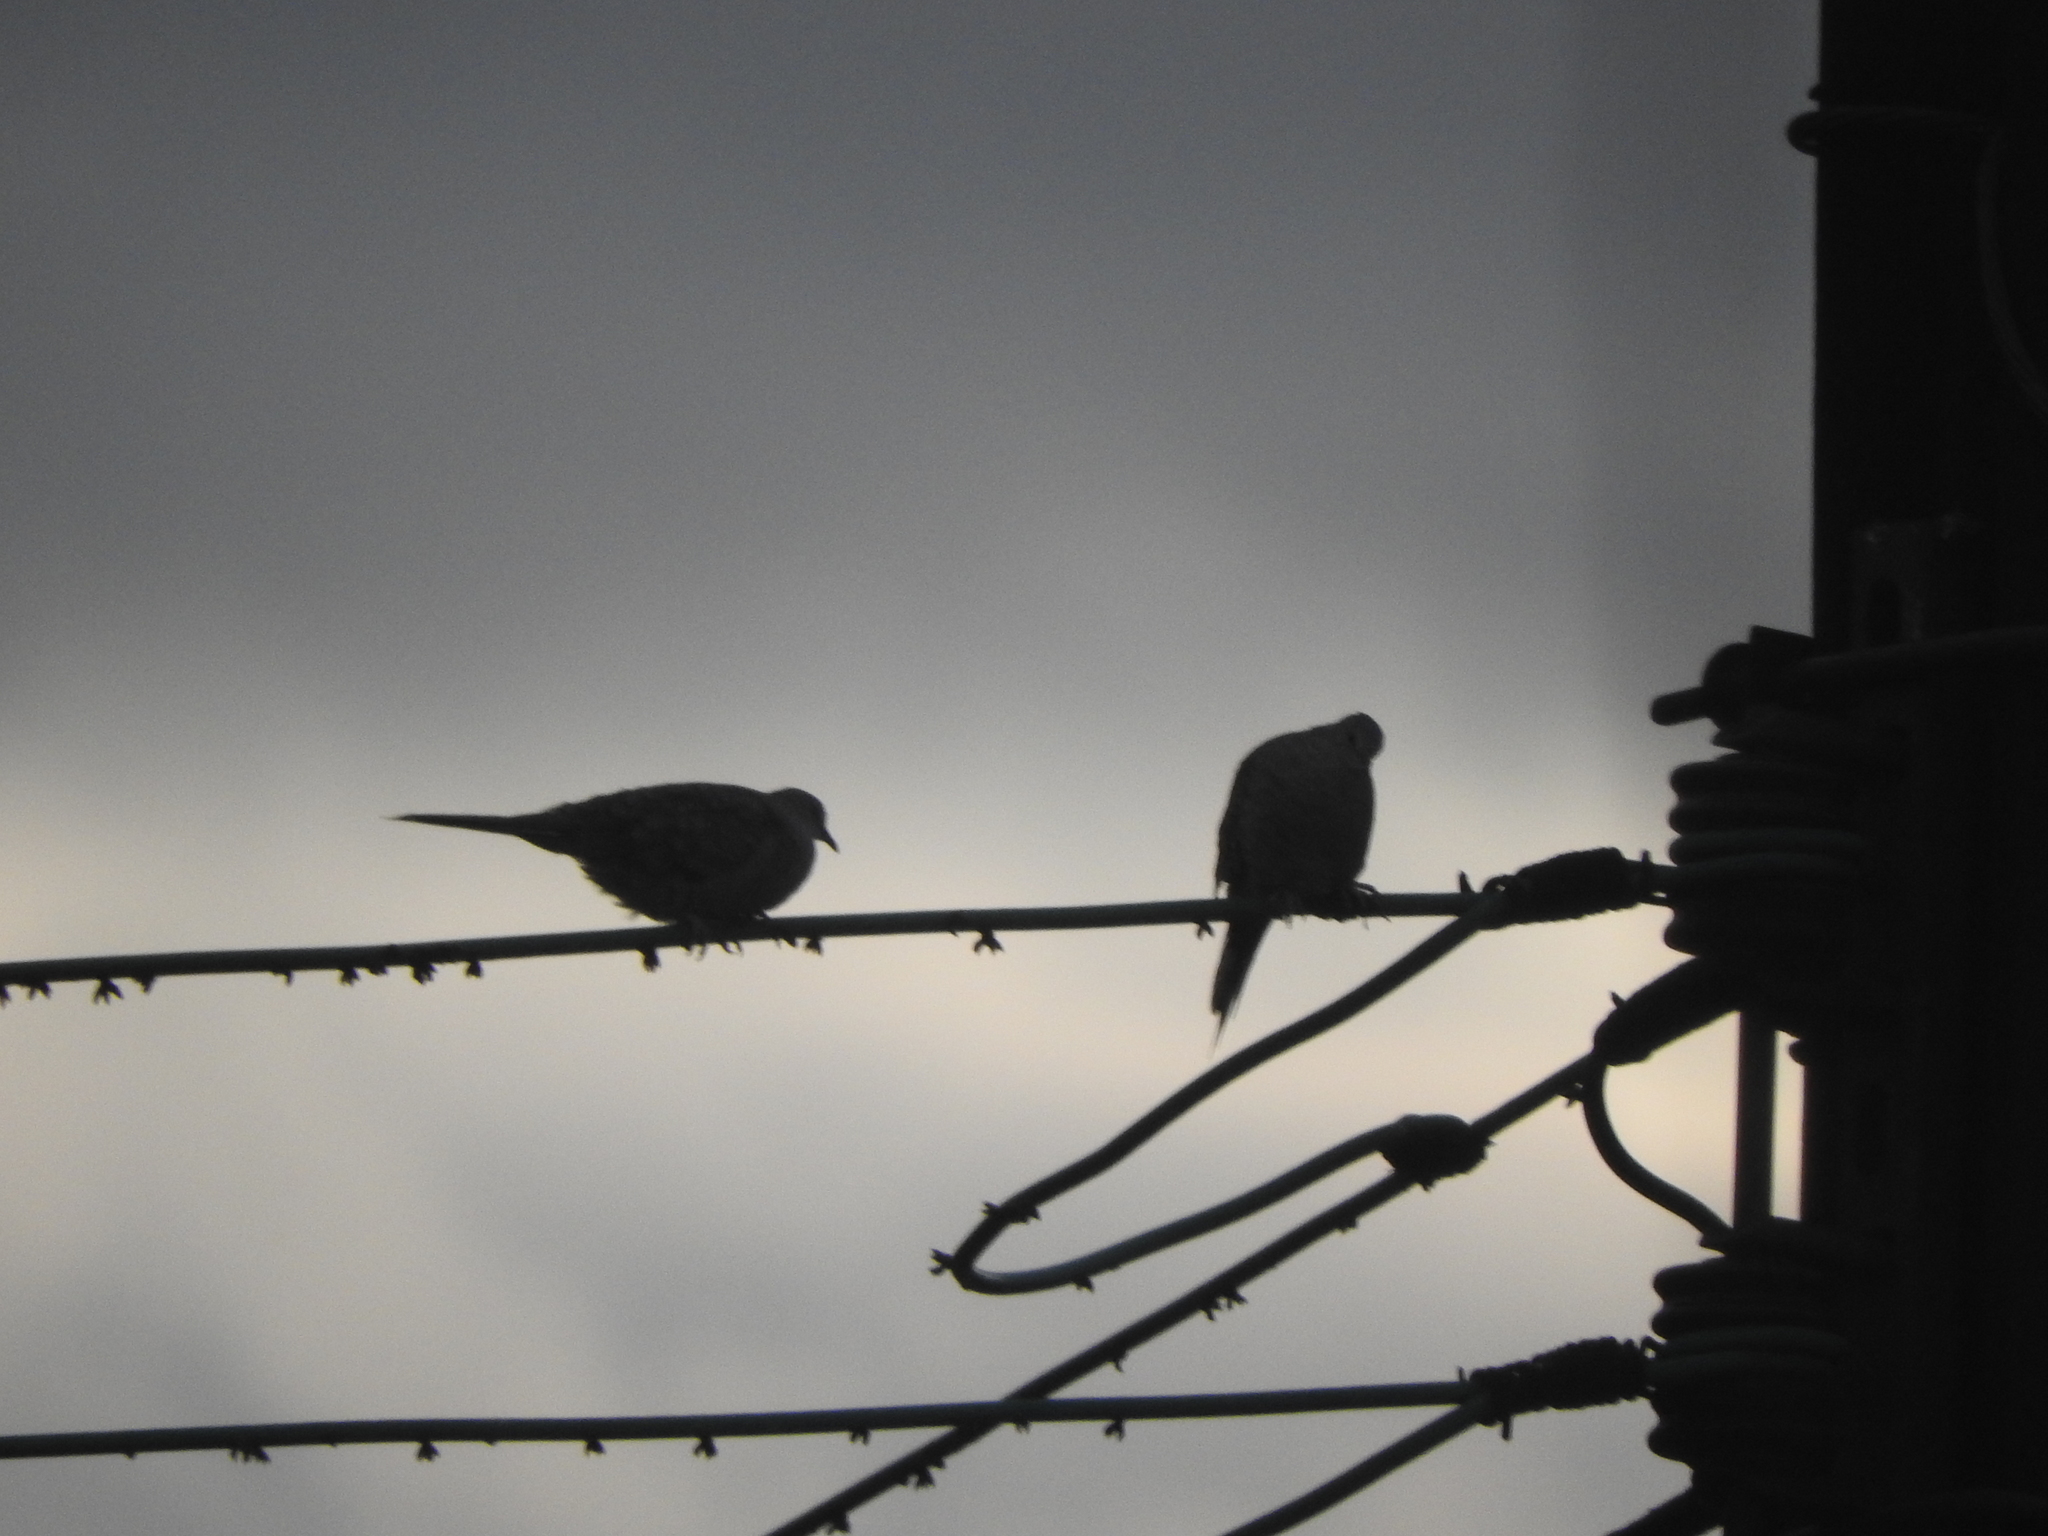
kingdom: Animalia
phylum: Chordata
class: Aves
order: Columbiformes
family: Columbidae
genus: Columbina
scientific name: Columbina inca
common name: Inca dove
